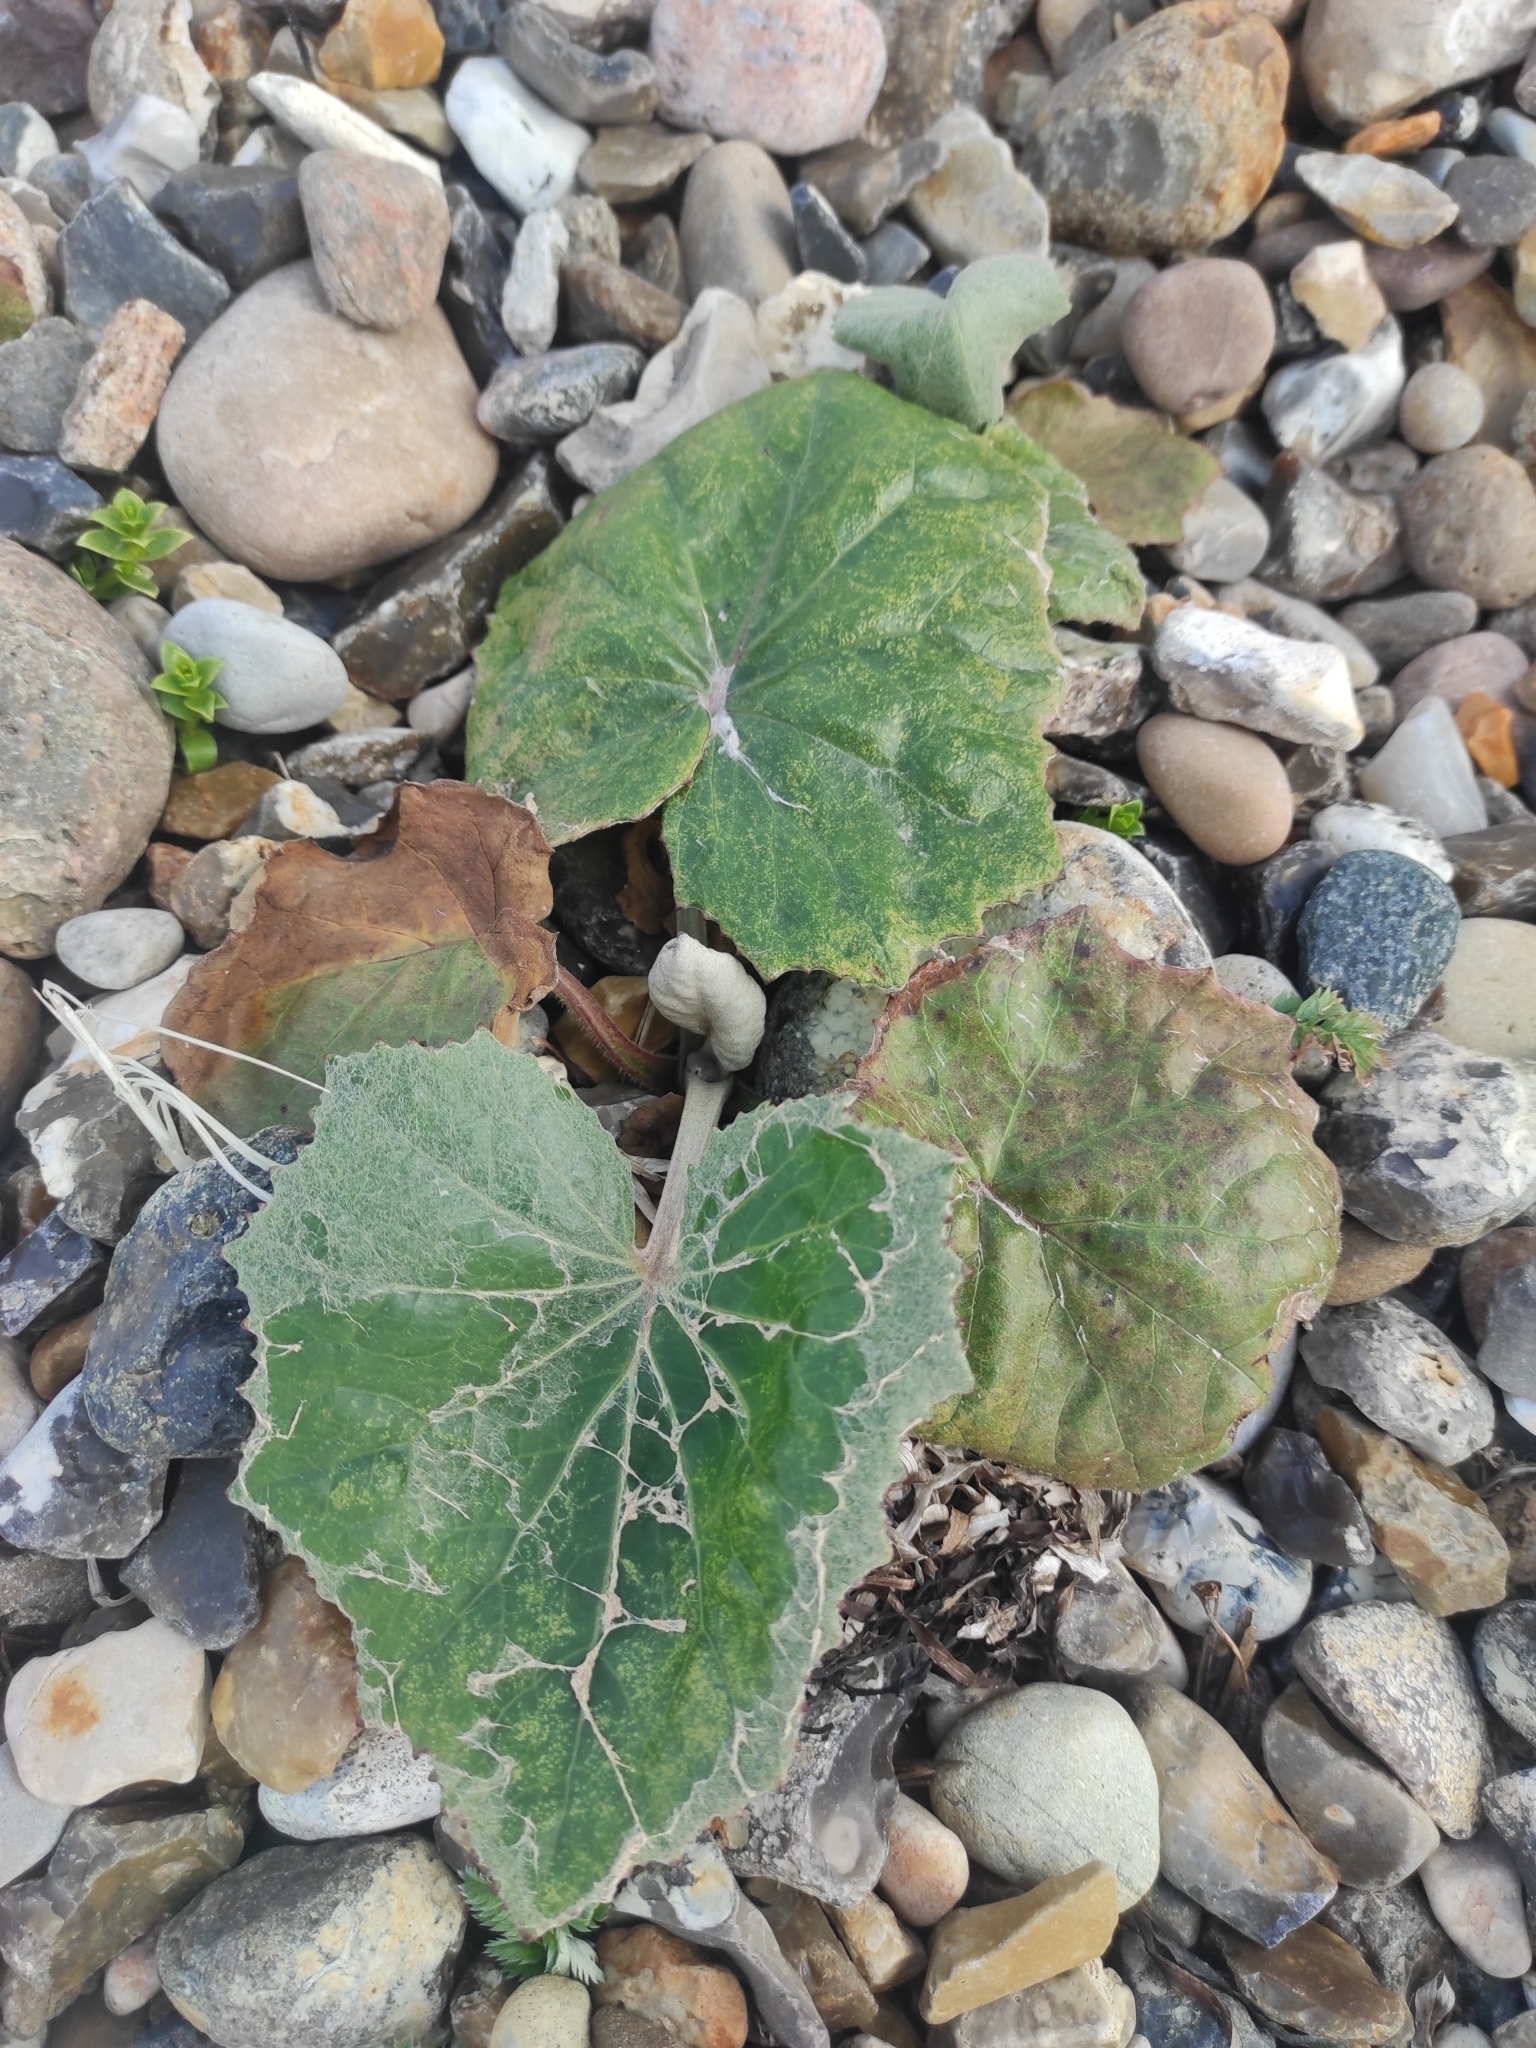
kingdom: Plantae
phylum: Tracheophyta
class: Magnoliopsida
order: Asterales
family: Asteraceae
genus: Tussilago
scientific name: Tussilago farfara
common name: Coltsfoot
